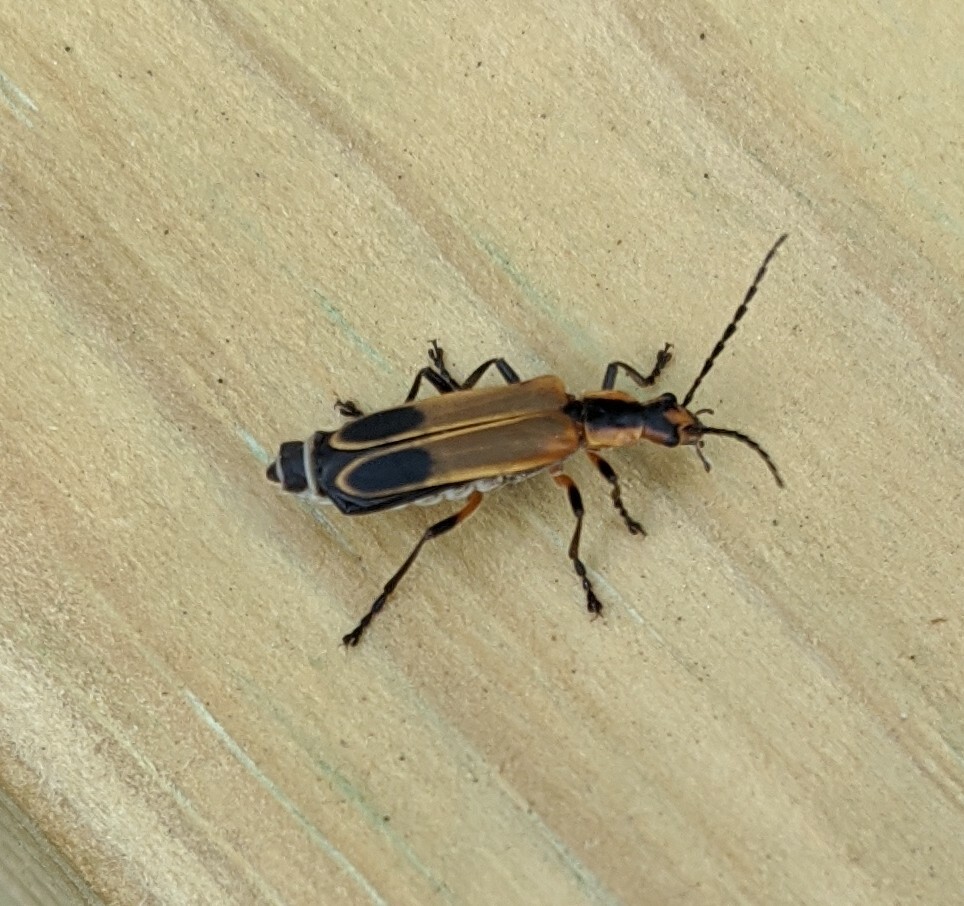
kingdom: Animalia
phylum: Arthropoda
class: Insecta
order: Coleoptera
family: Cantharidae
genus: Chauliognathus
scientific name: Chauliognathus marginatus
